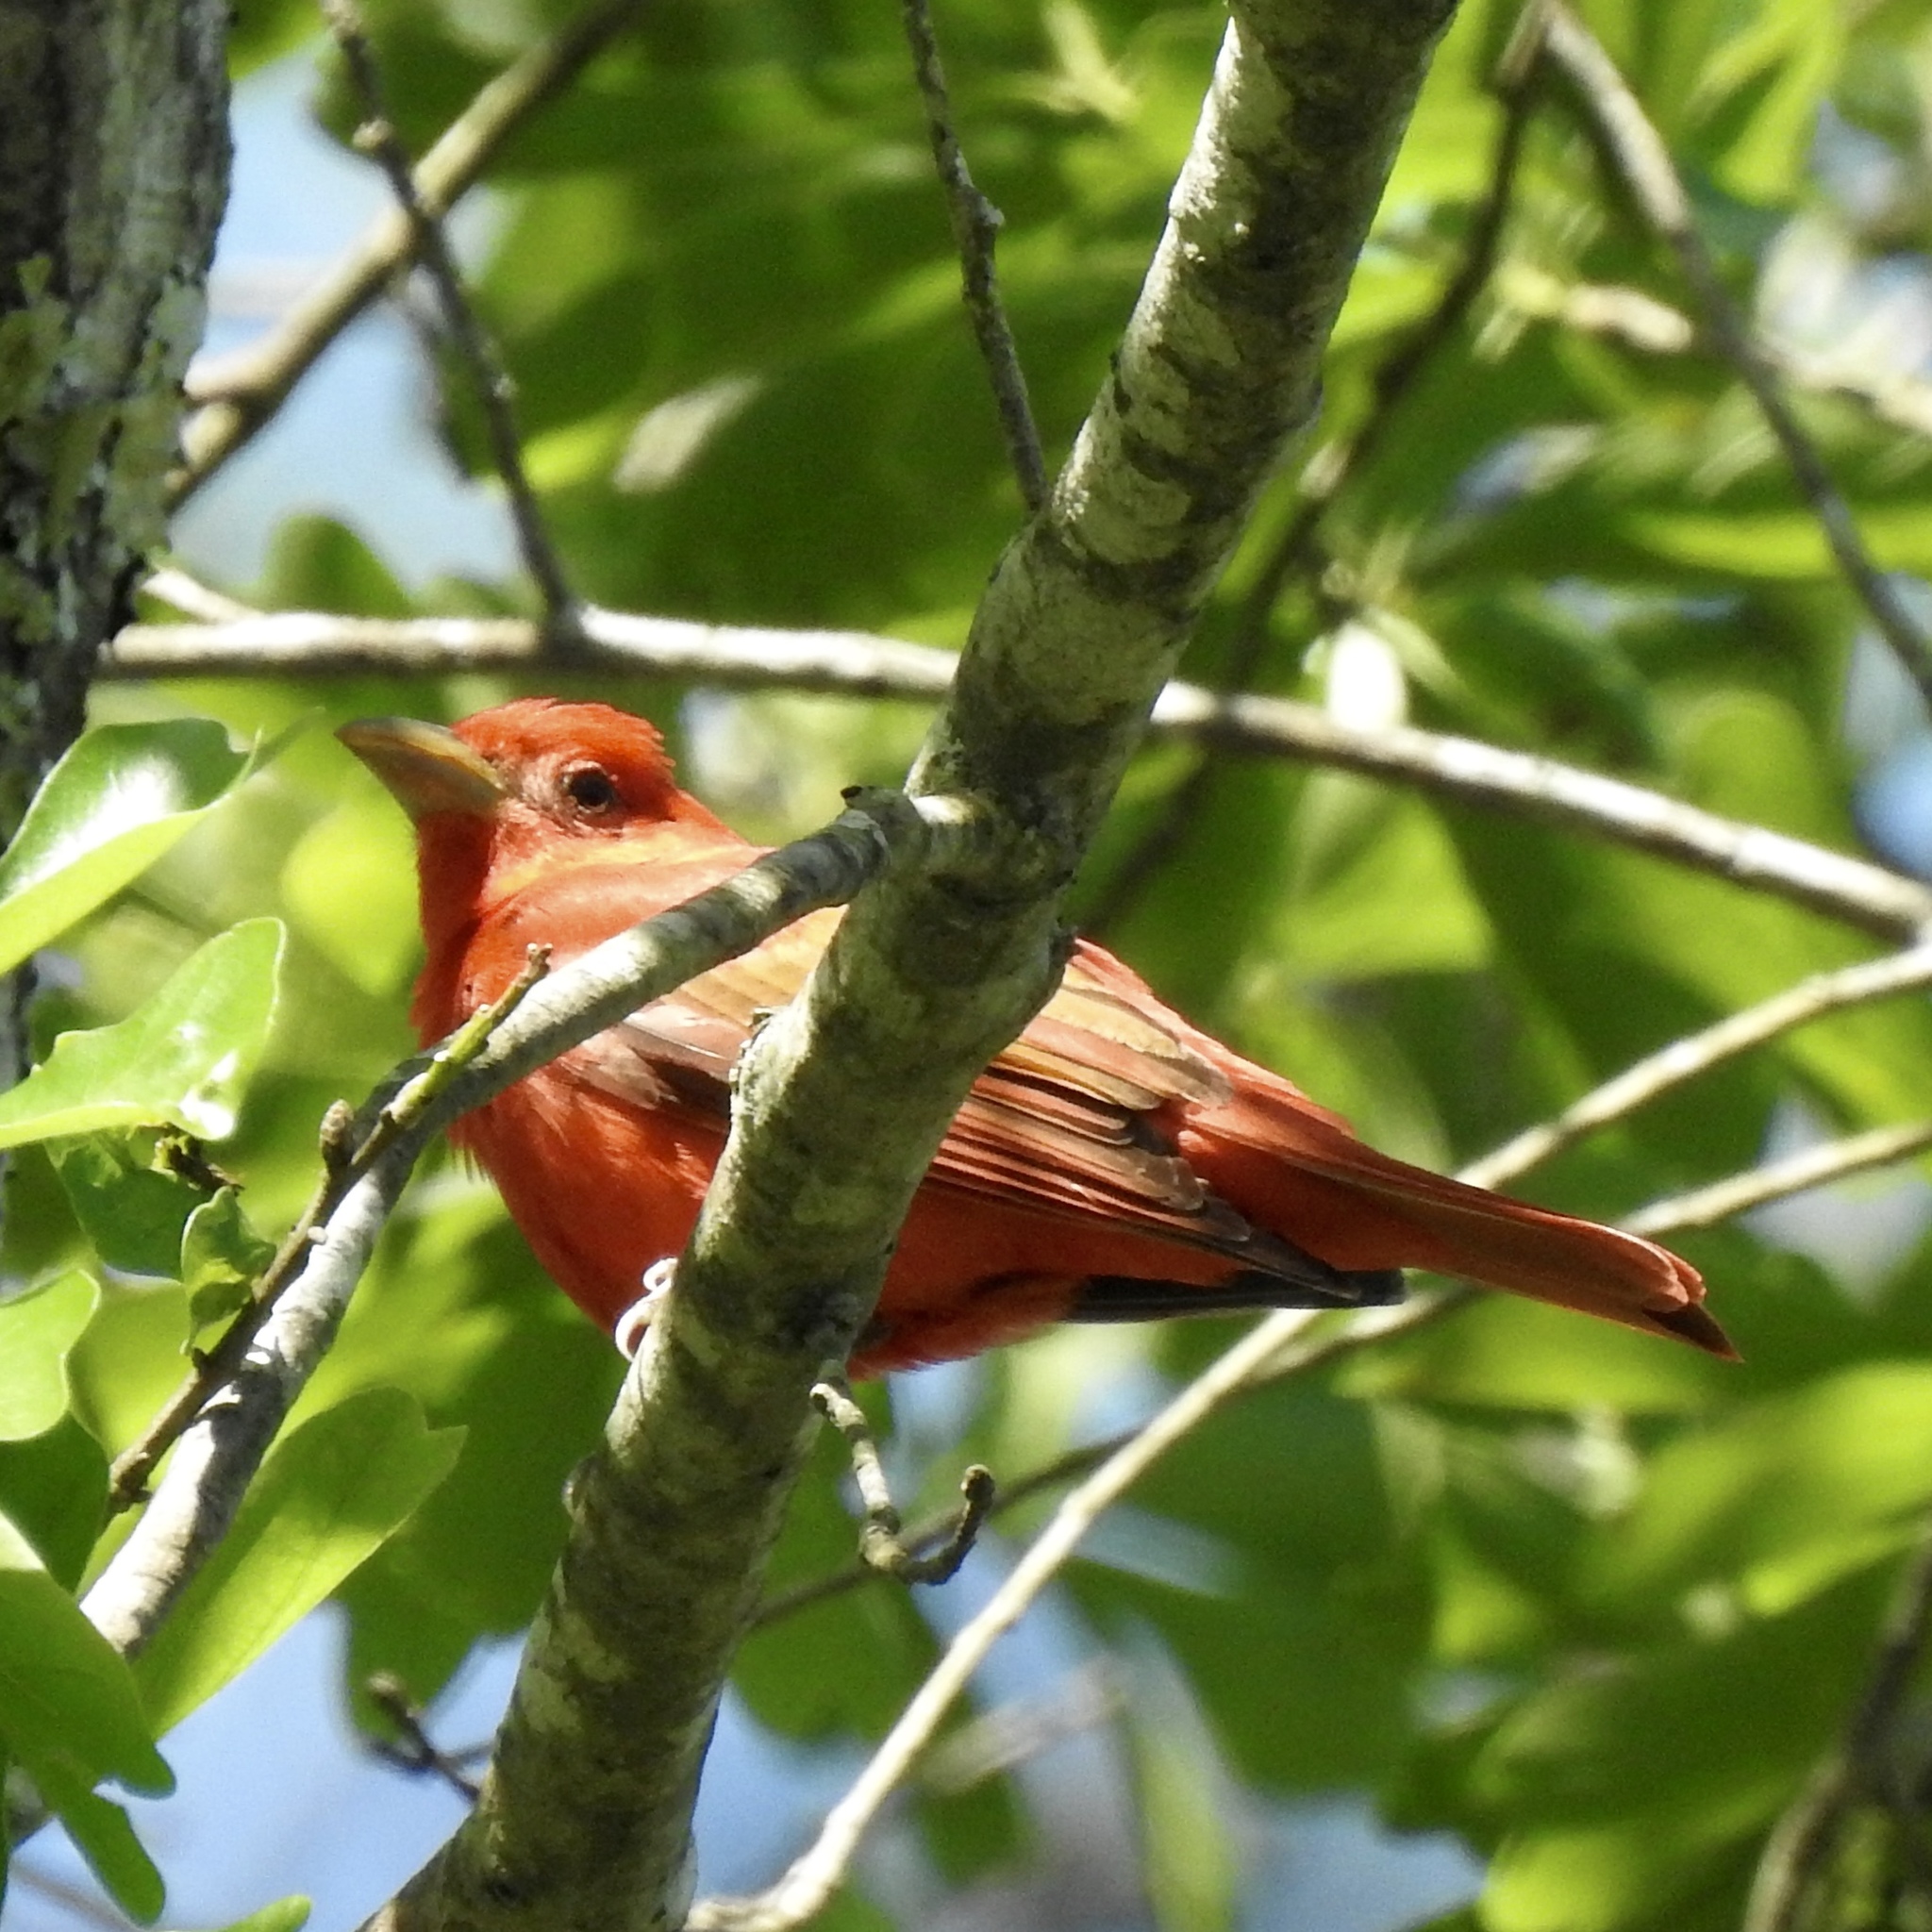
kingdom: Animalia
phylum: Chordata
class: Aves
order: Passeriformes
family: Cardinalidae
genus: Piranga
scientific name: Piranga rubra
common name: Summer tanager
